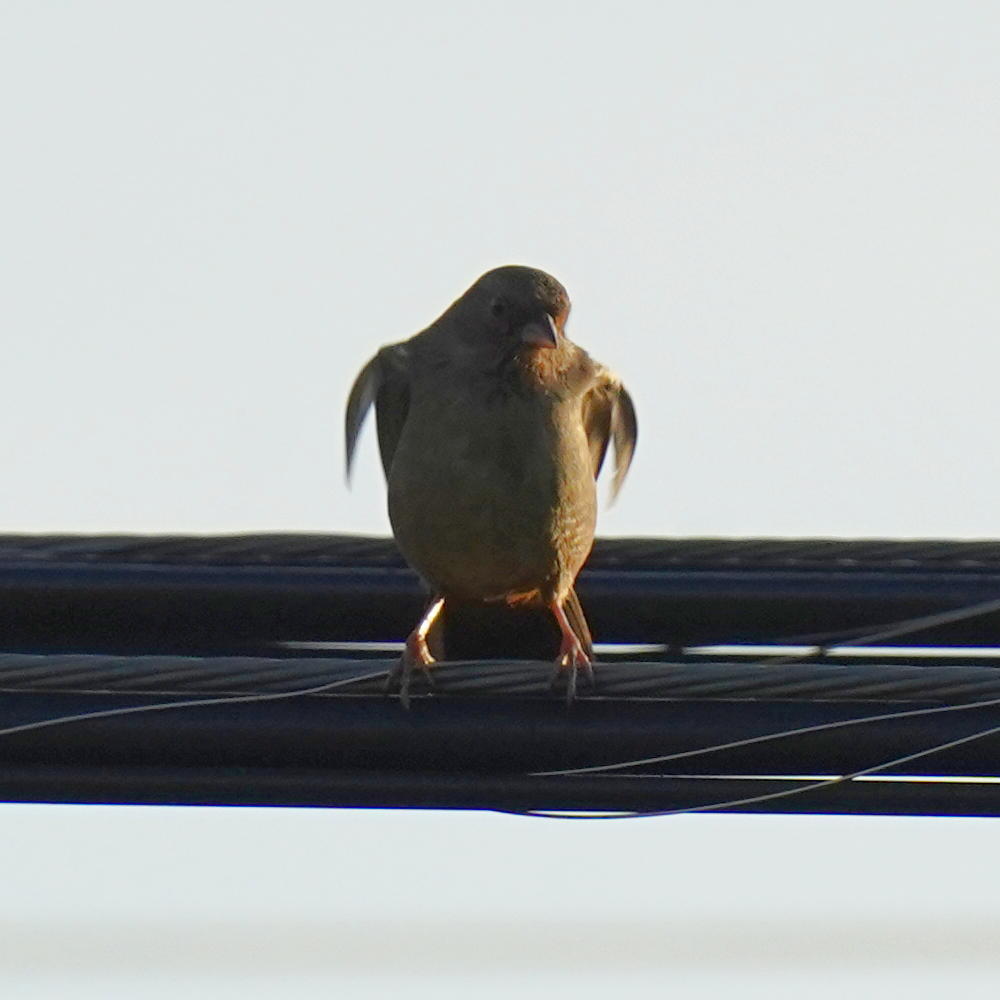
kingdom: Animalia
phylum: Chordata
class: Aves
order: Passeriformes
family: Passerellidae
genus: Melozone
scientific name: Melozone crissalis
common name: California towhee
